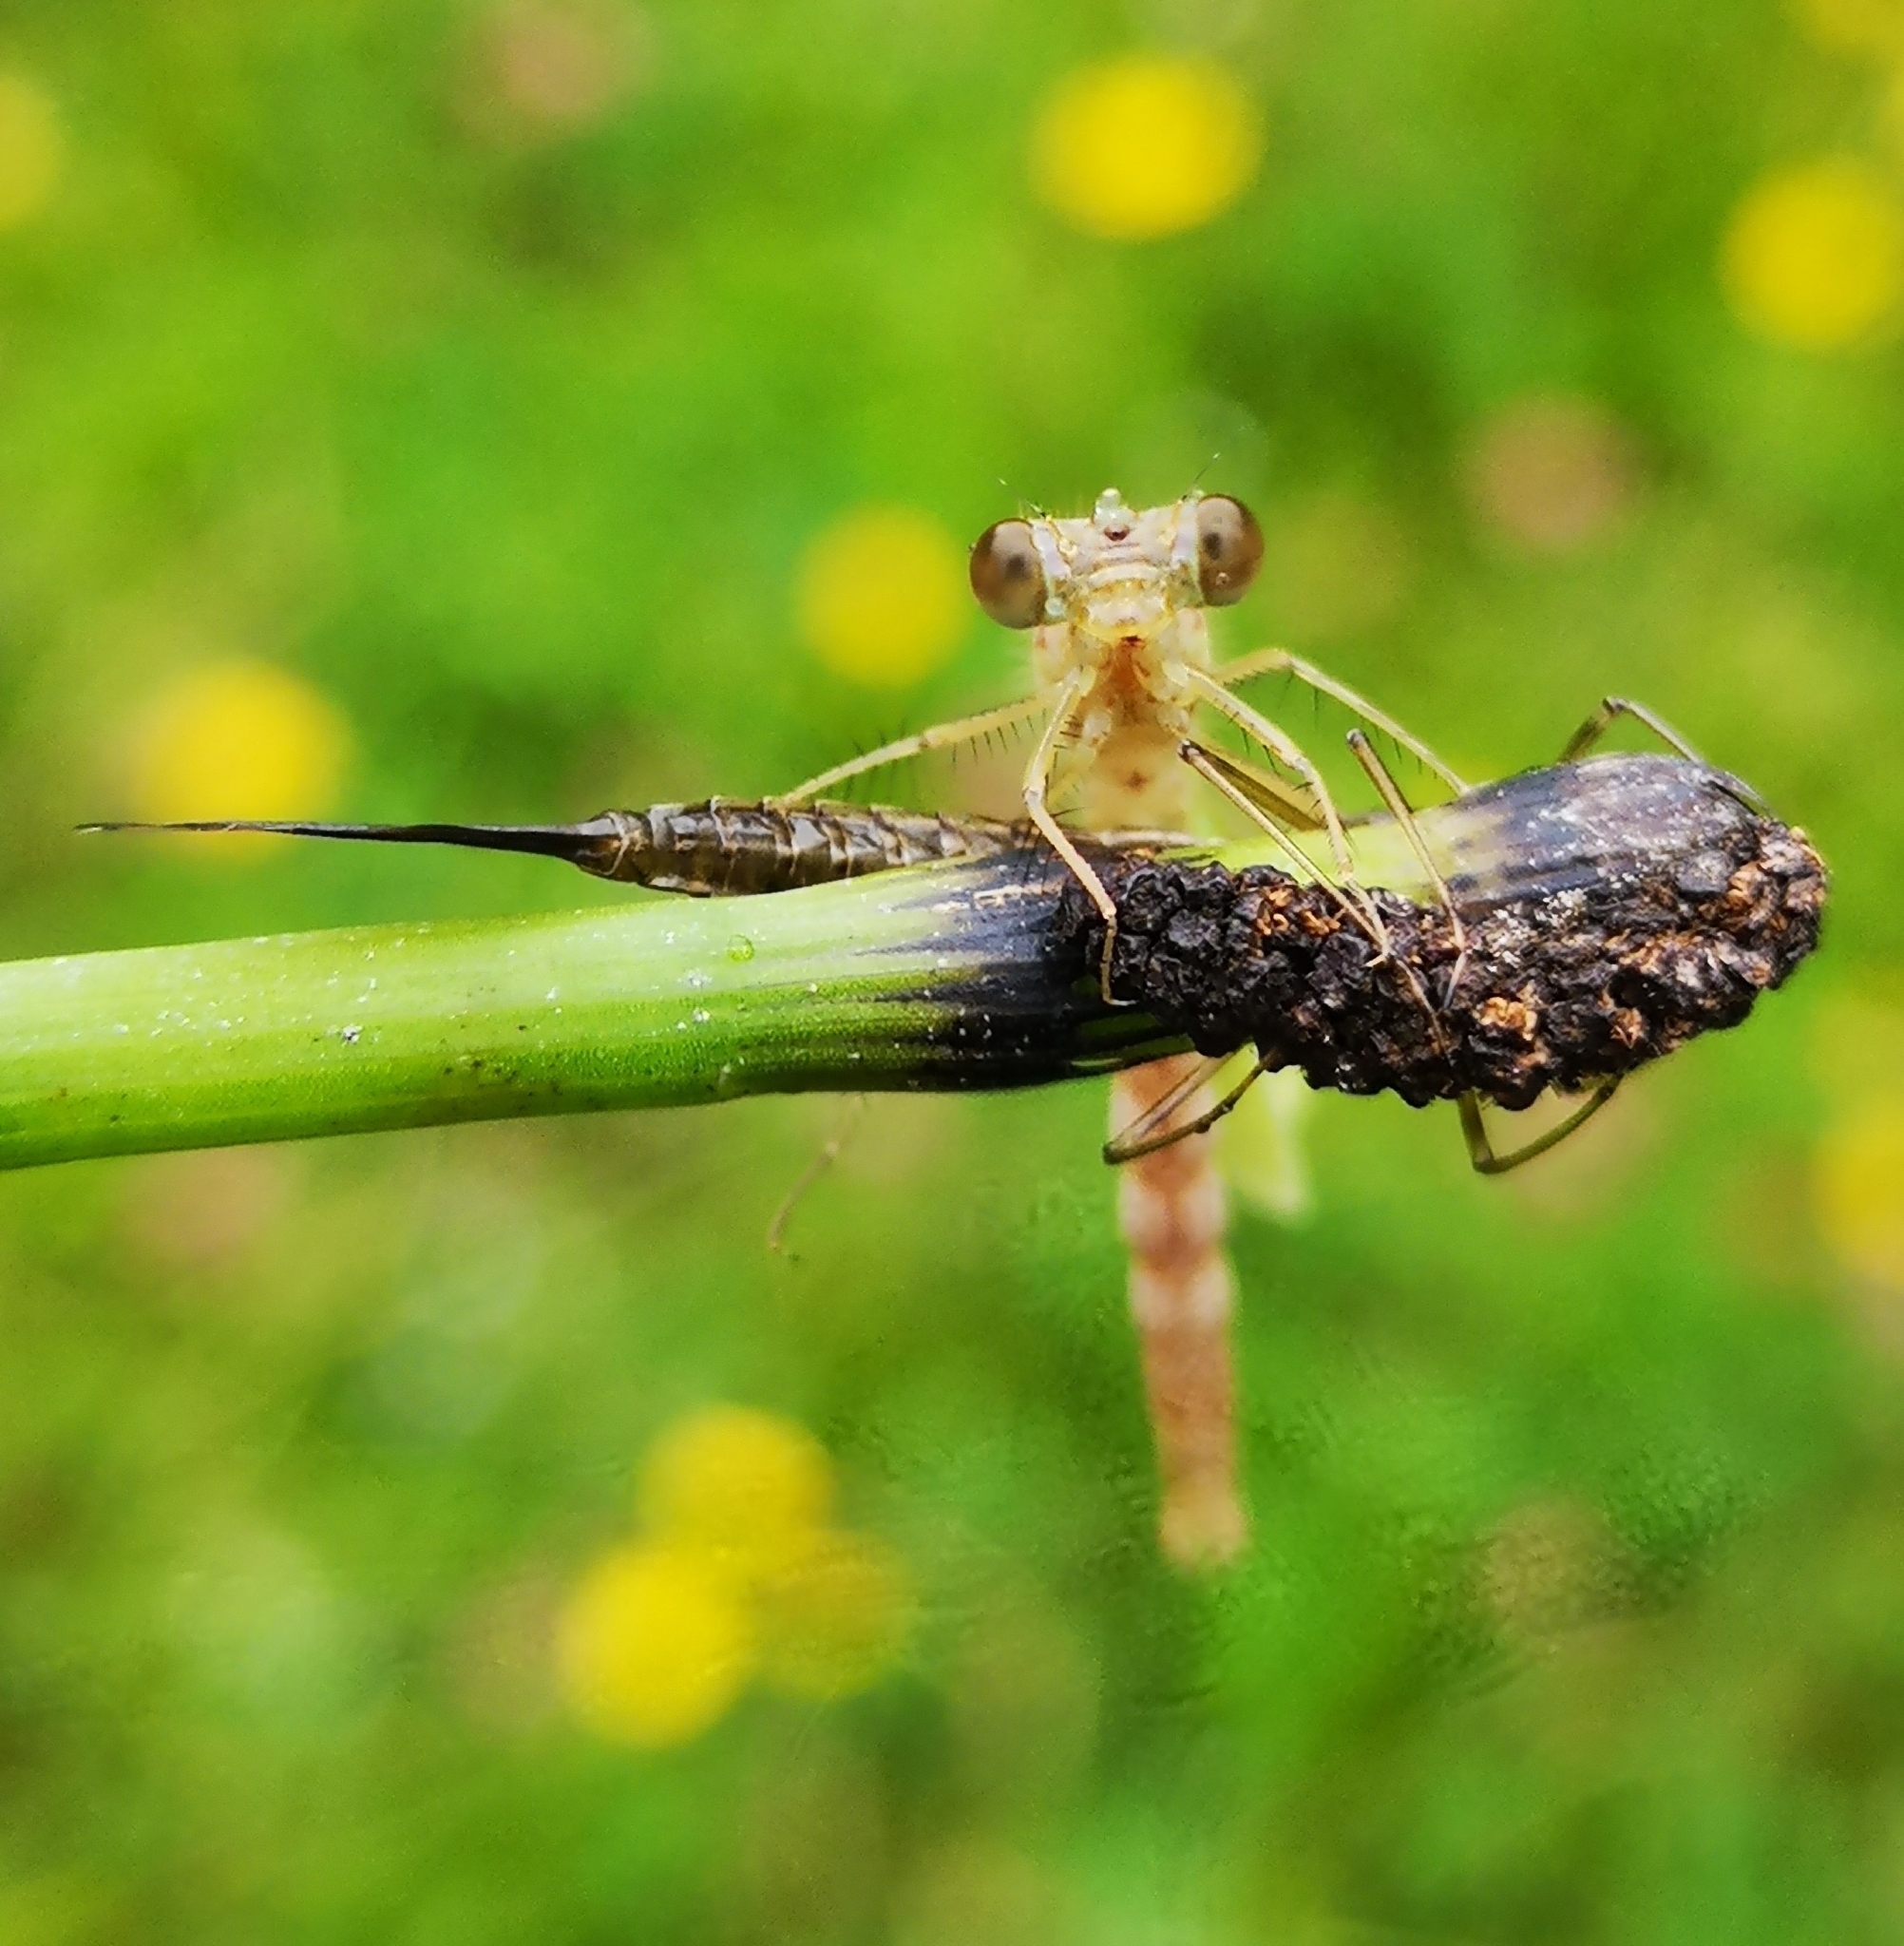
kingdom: Animalia
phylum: Arthropoda
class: Insecta
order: Odonata
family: Lestidae
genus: Lestes
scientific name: Lestes sponsa
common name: Common spreadwing
